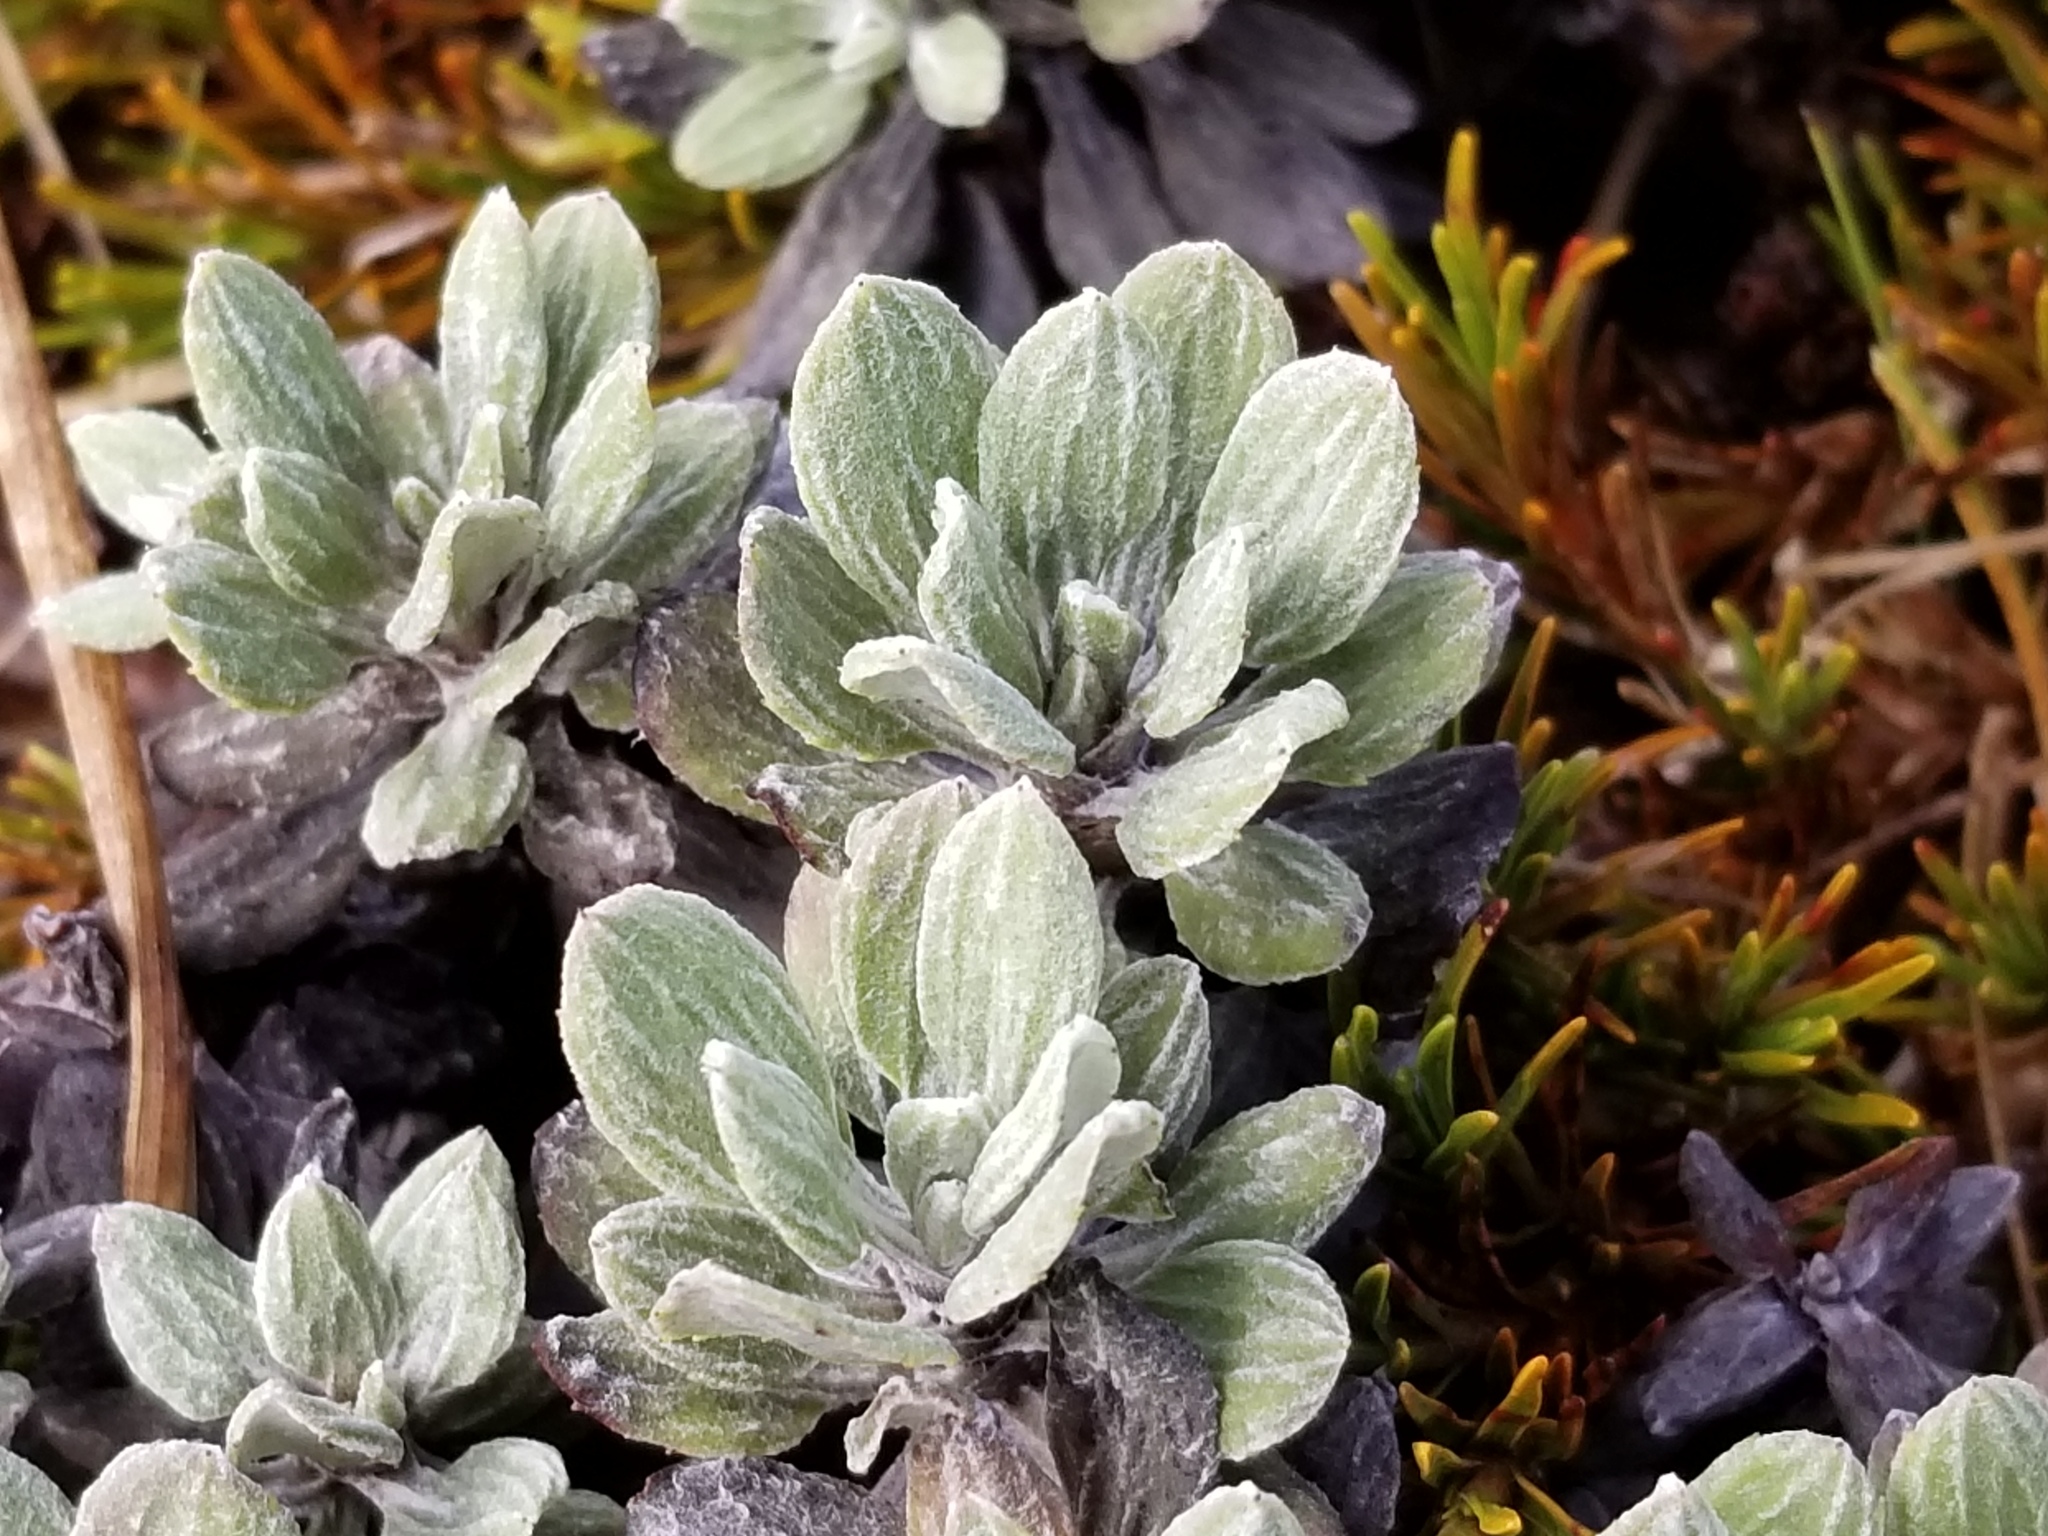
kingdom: Plantae
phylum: Tracheophyta
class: Magnoliopsida
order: Asterales
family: Asteraceae
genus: Celmisia
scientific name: Celmisia discolor
